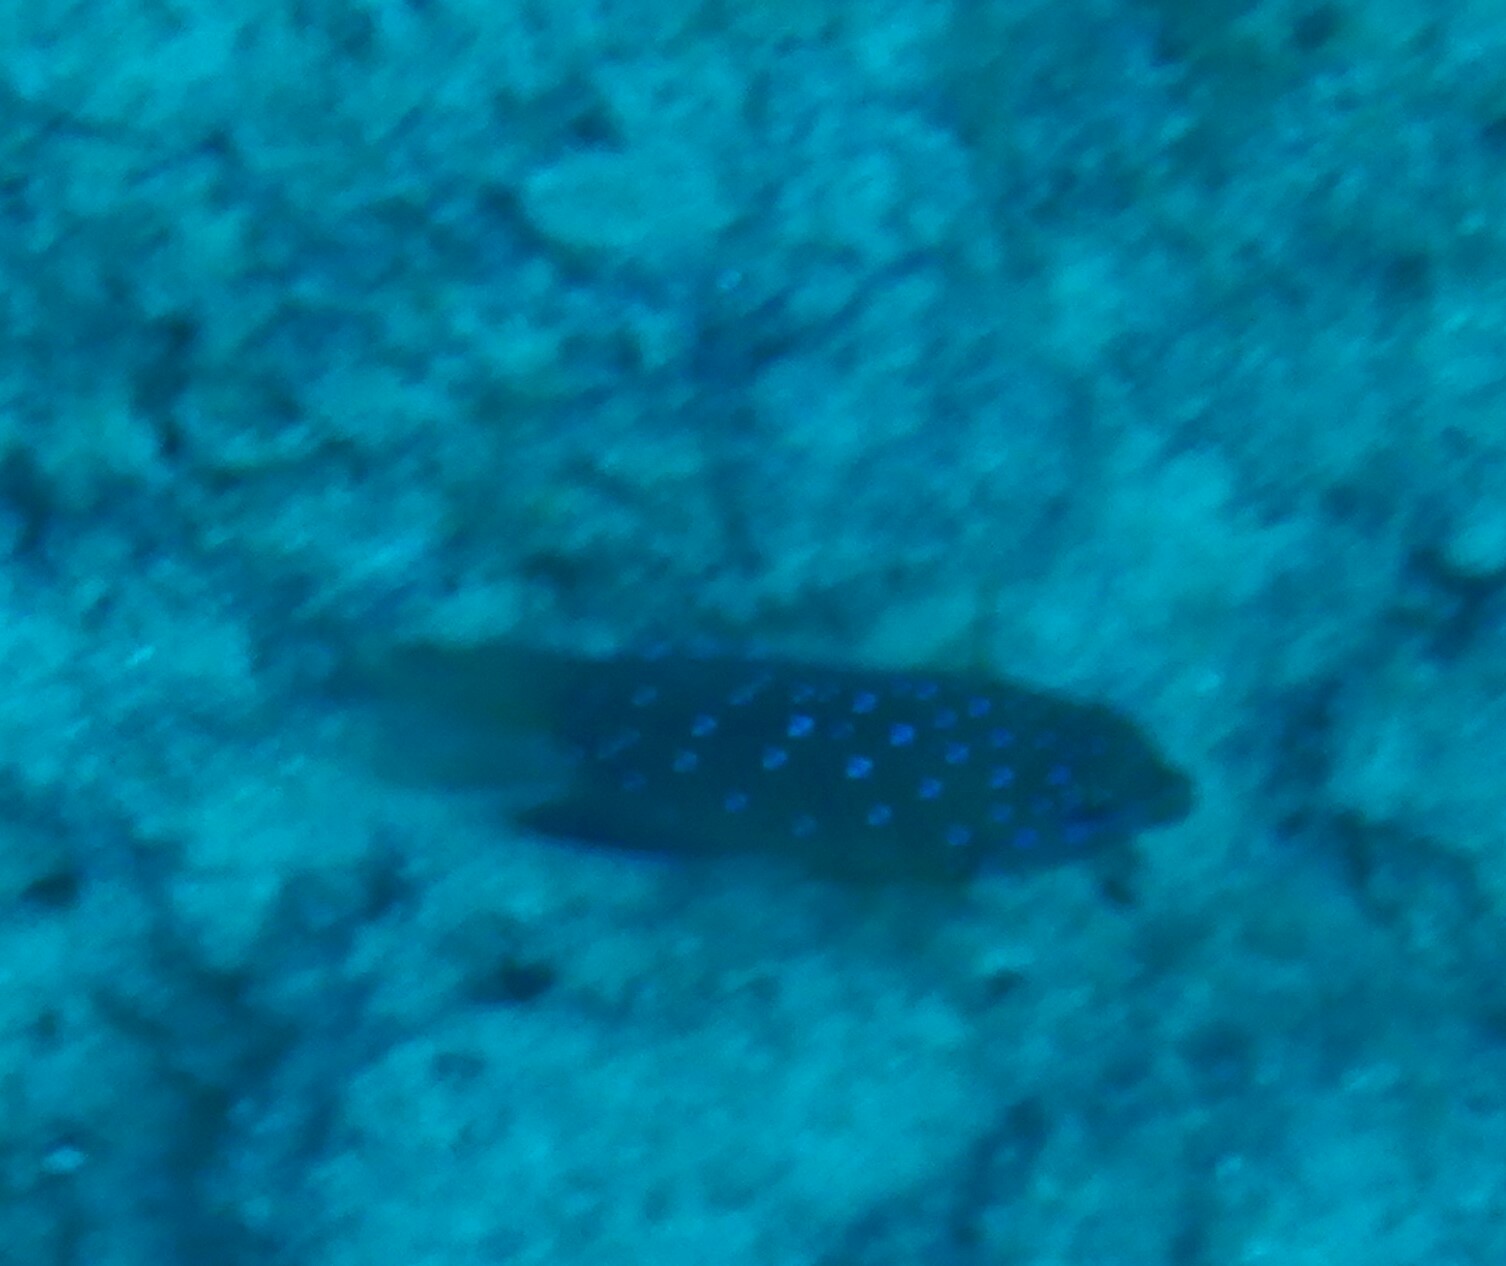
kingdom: Animalia
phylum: Chordata
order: Perciformes
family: Pomacentridae
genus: Plectroglyphidodon
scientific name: Plectroglyphidodon lacrymatus
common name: Jewel damsel
